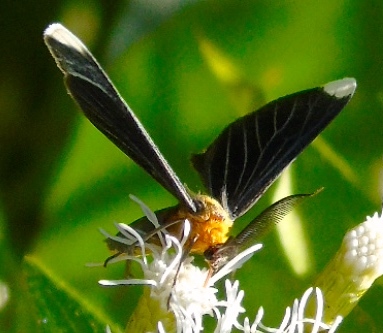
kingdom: Animalia
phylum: Arthropoda
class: Insecta
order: Lepidoptera
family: Geometridae
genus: Melanchroia
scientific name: Melanchroia chephise
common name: White-tipped black
